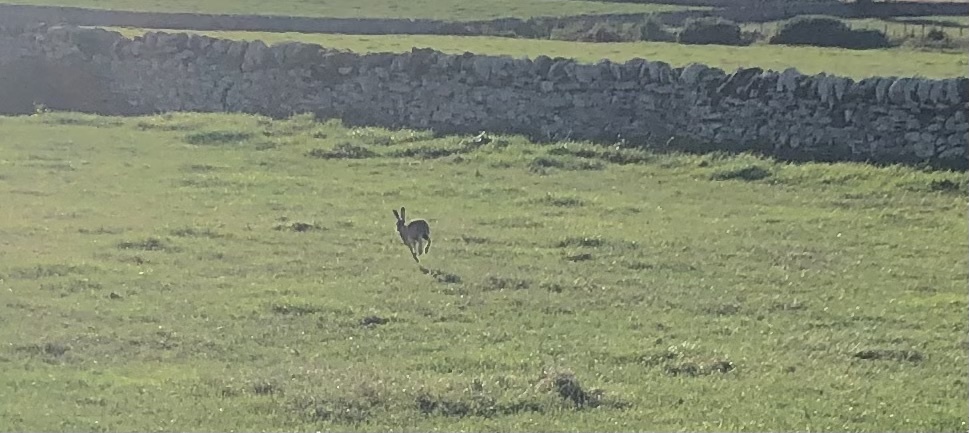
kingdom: Animalia
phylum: Chordata
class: Mammalia
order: Lagomorpha
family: Leporidae
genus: Lepus
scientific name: Lepus europaeus
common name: European hare
